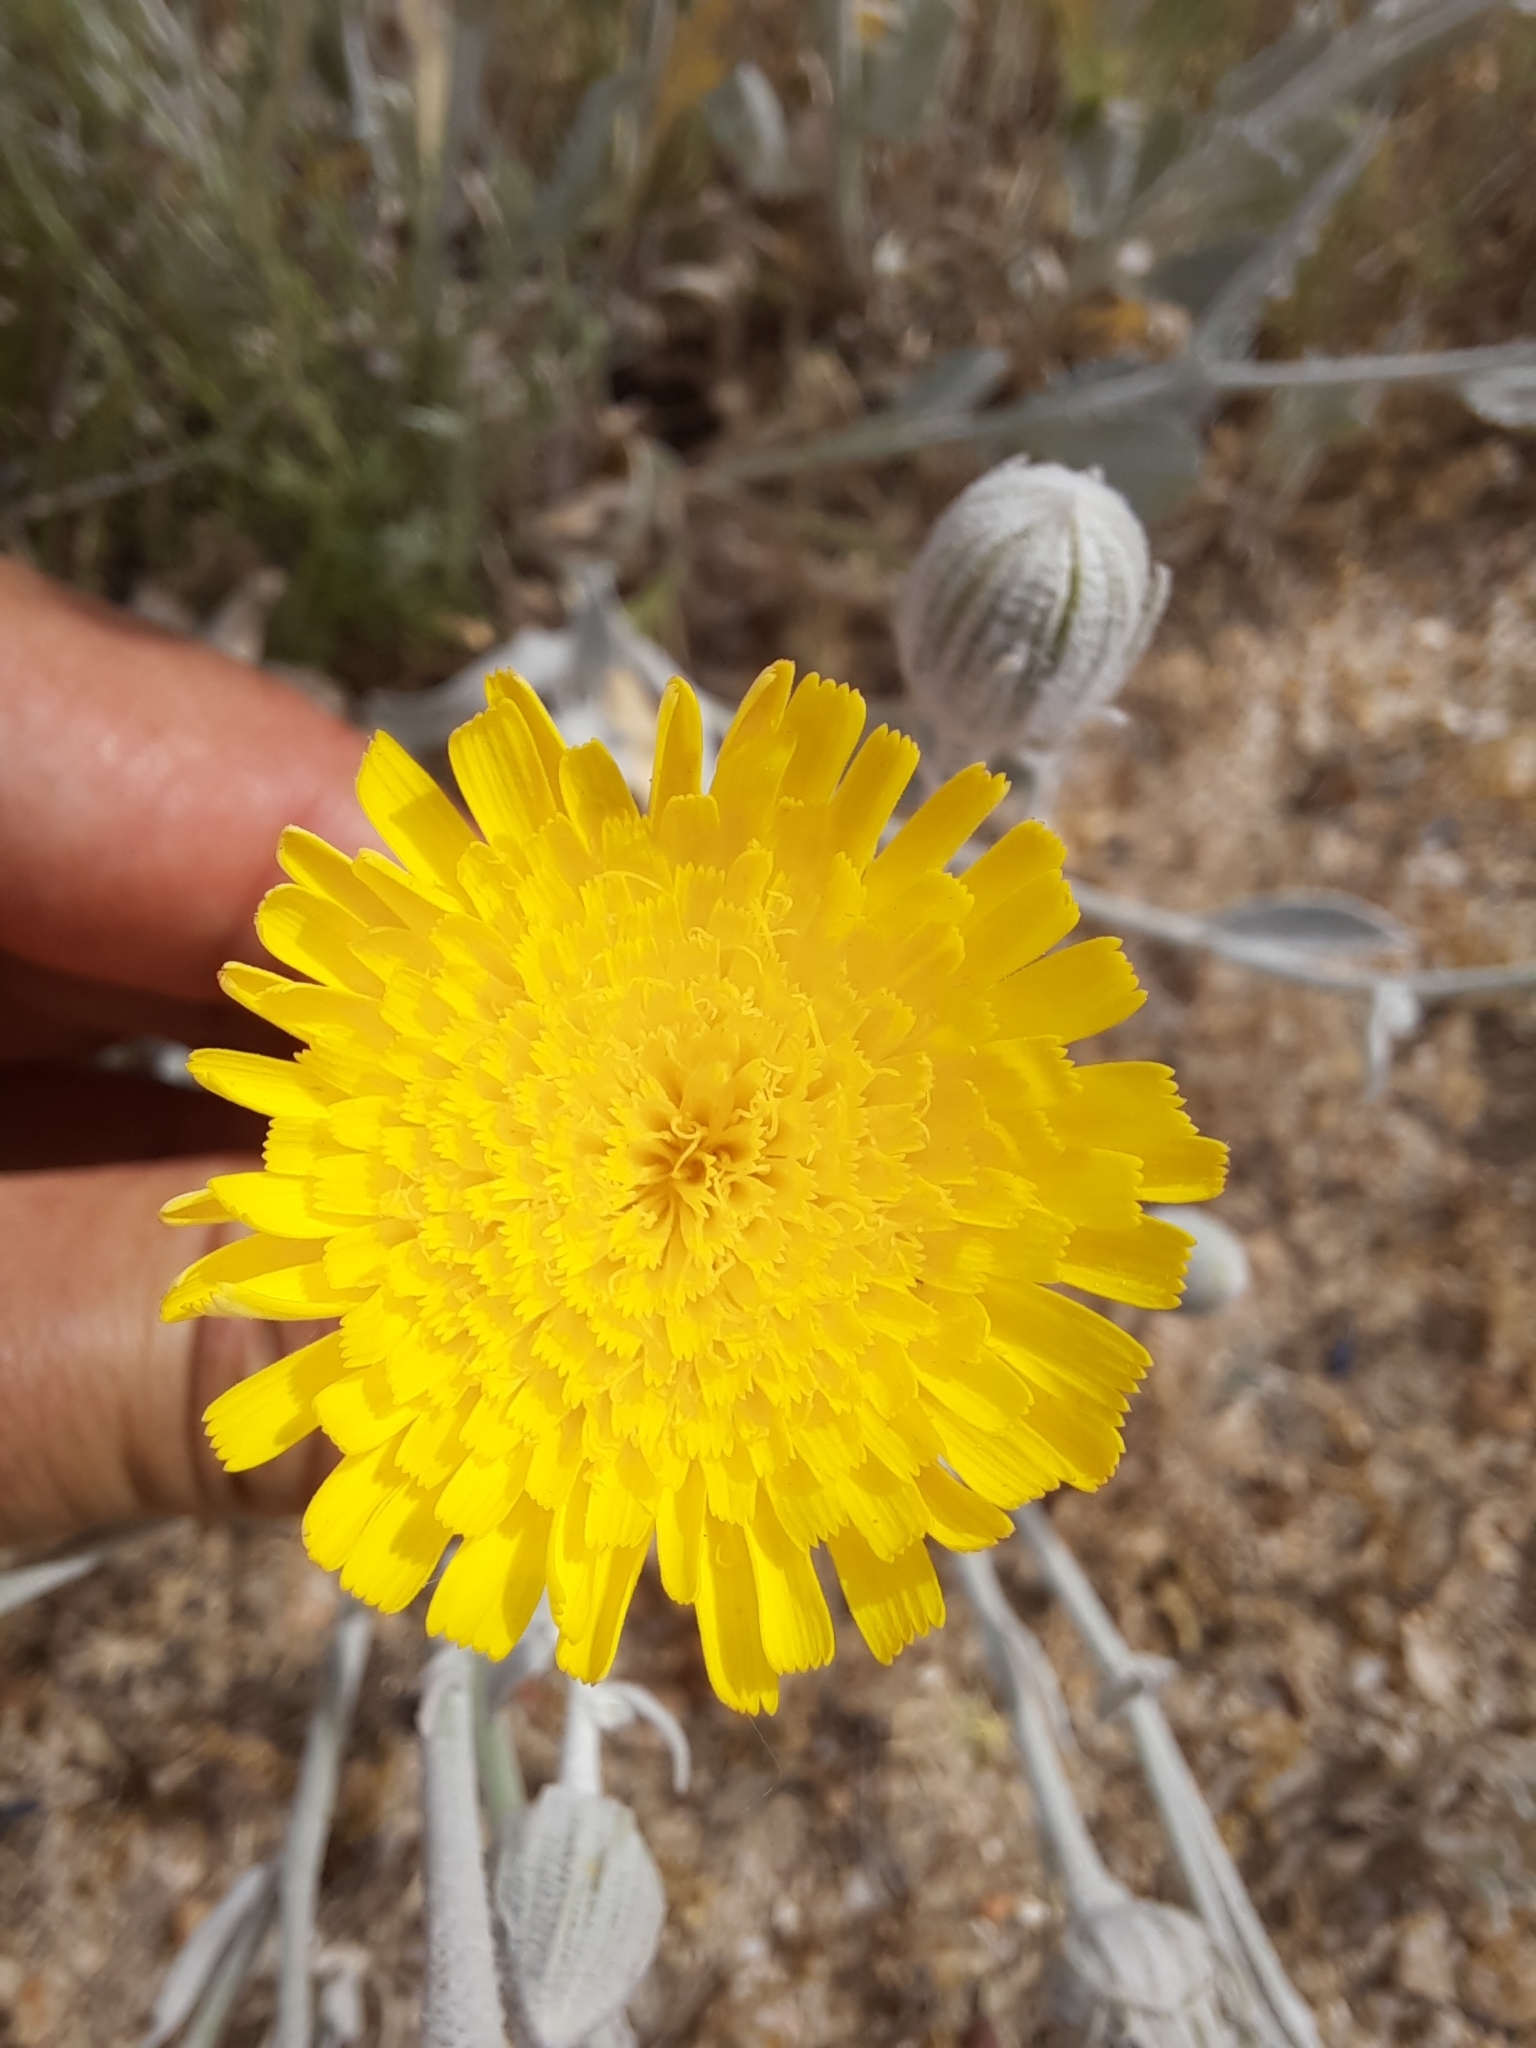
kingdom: Plantae
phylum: Tracheophyta
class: Magnoliopsida
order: Asterales
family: Asteraceae
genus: Andryala
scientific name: Andryala ragusina
